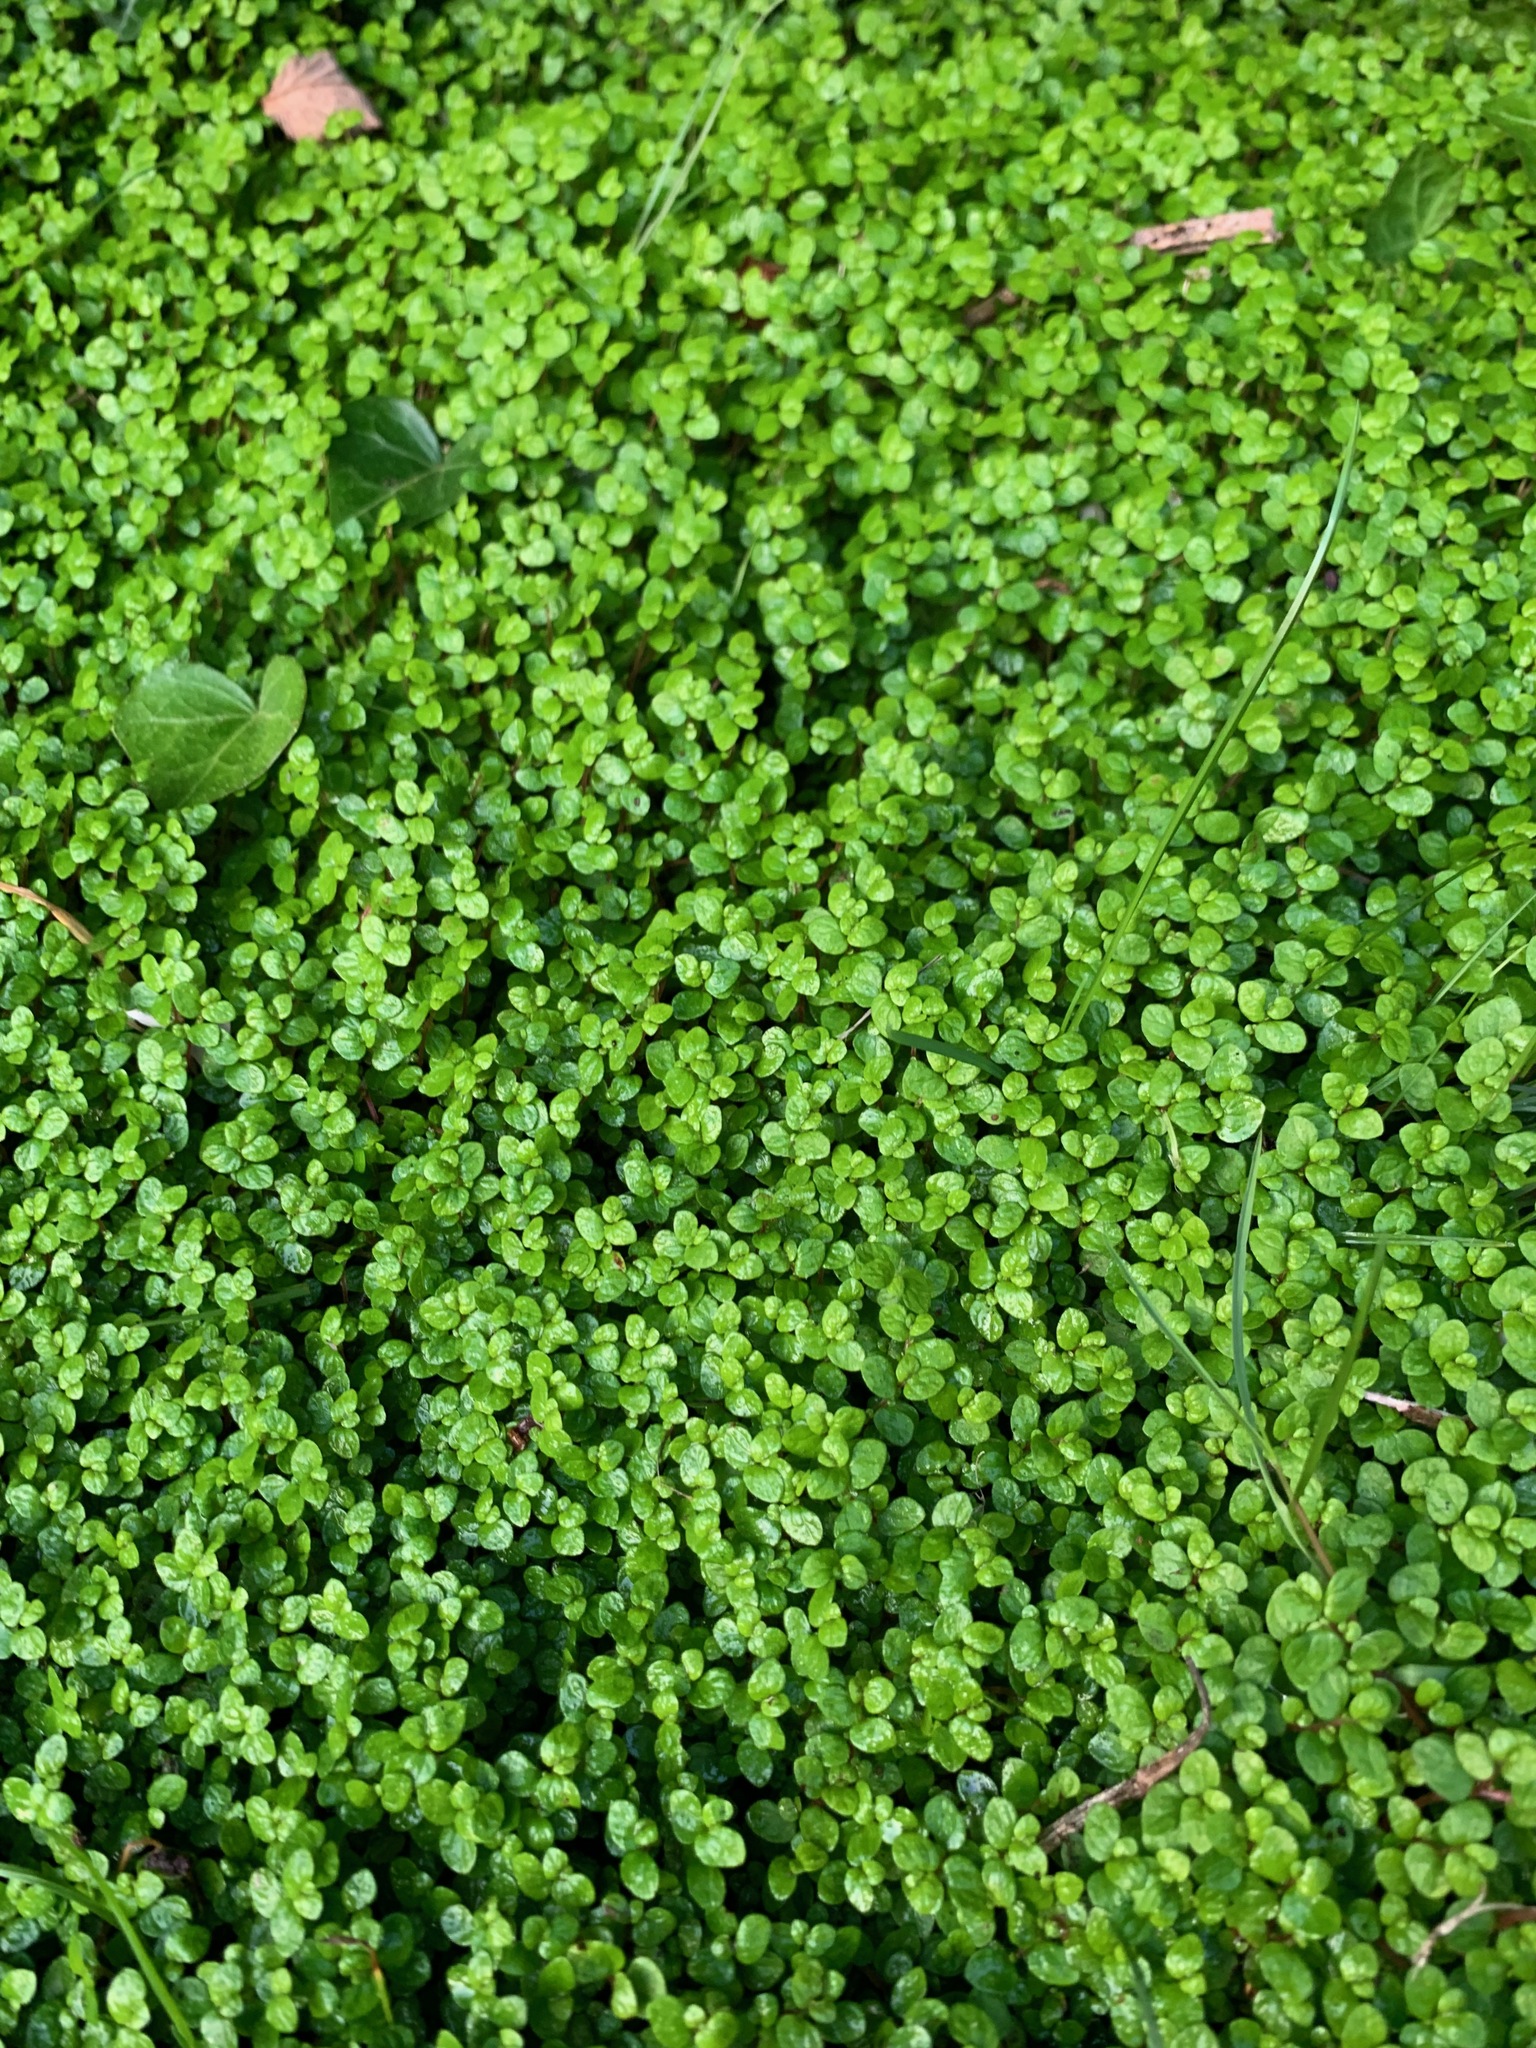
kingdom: Plantae
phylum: Tracheophyta
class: Magnoliopsida
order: Rosales
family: Urticaceae
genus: Soleirolia
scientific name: Soleirolia soleirolii
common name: Mind-your-own-business
